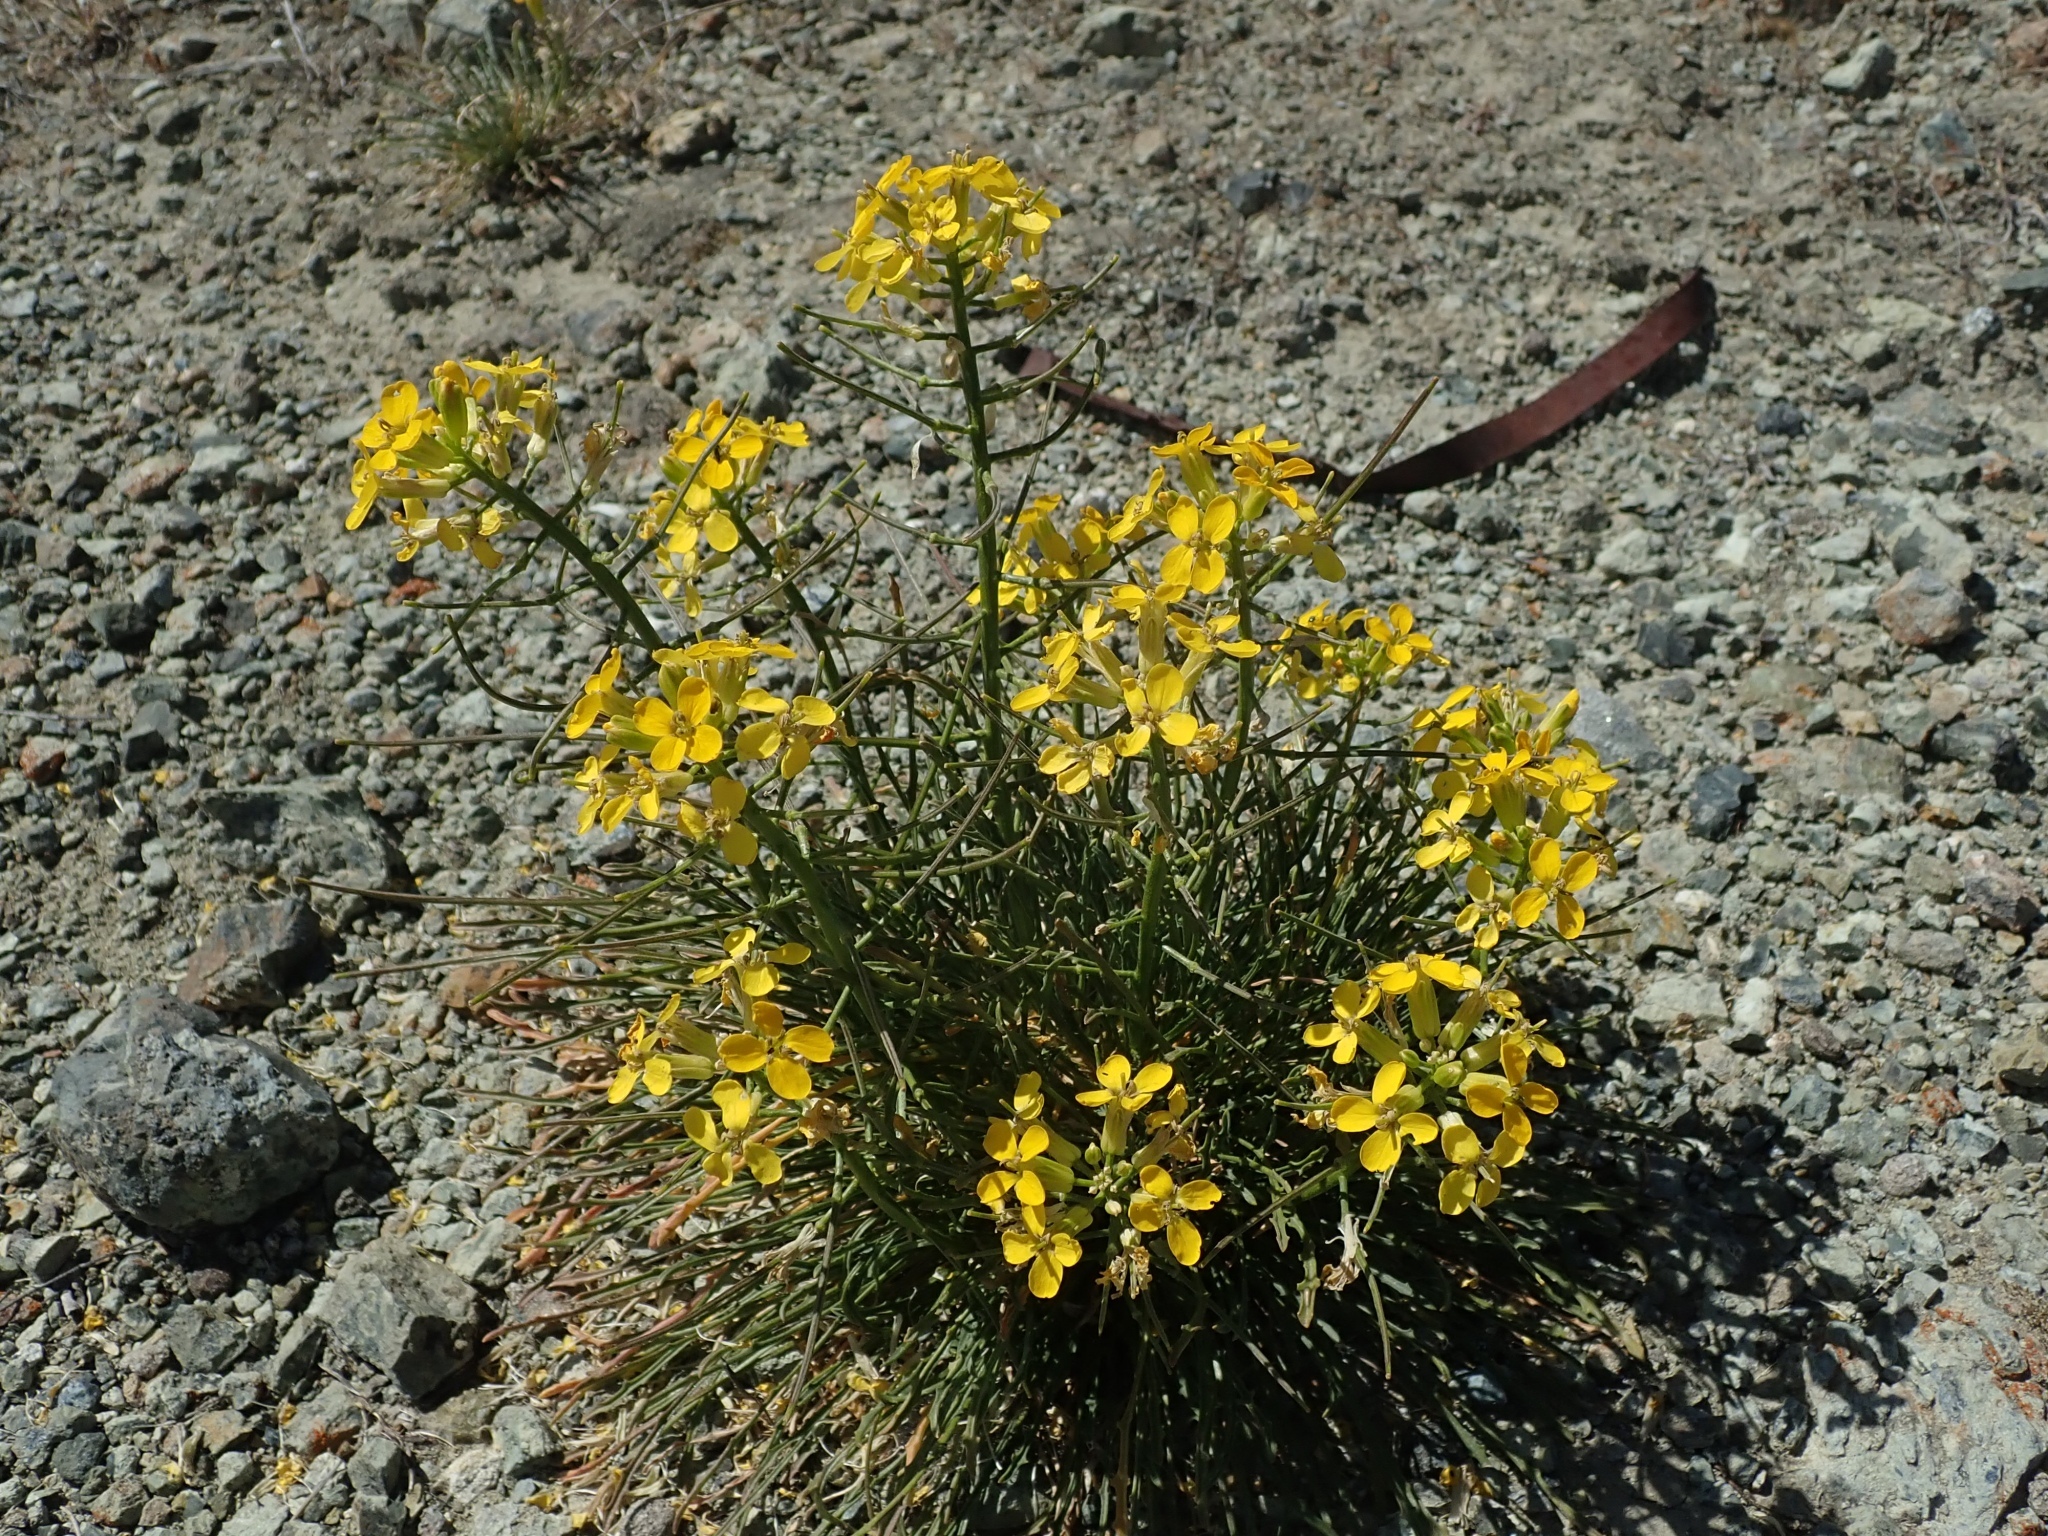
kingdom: Plantae
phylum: Tracheophyta
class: Magnoliopsida
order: Brassicales
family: Brassicaceae
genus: Erysimum
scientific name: Erysimum franciscanum
